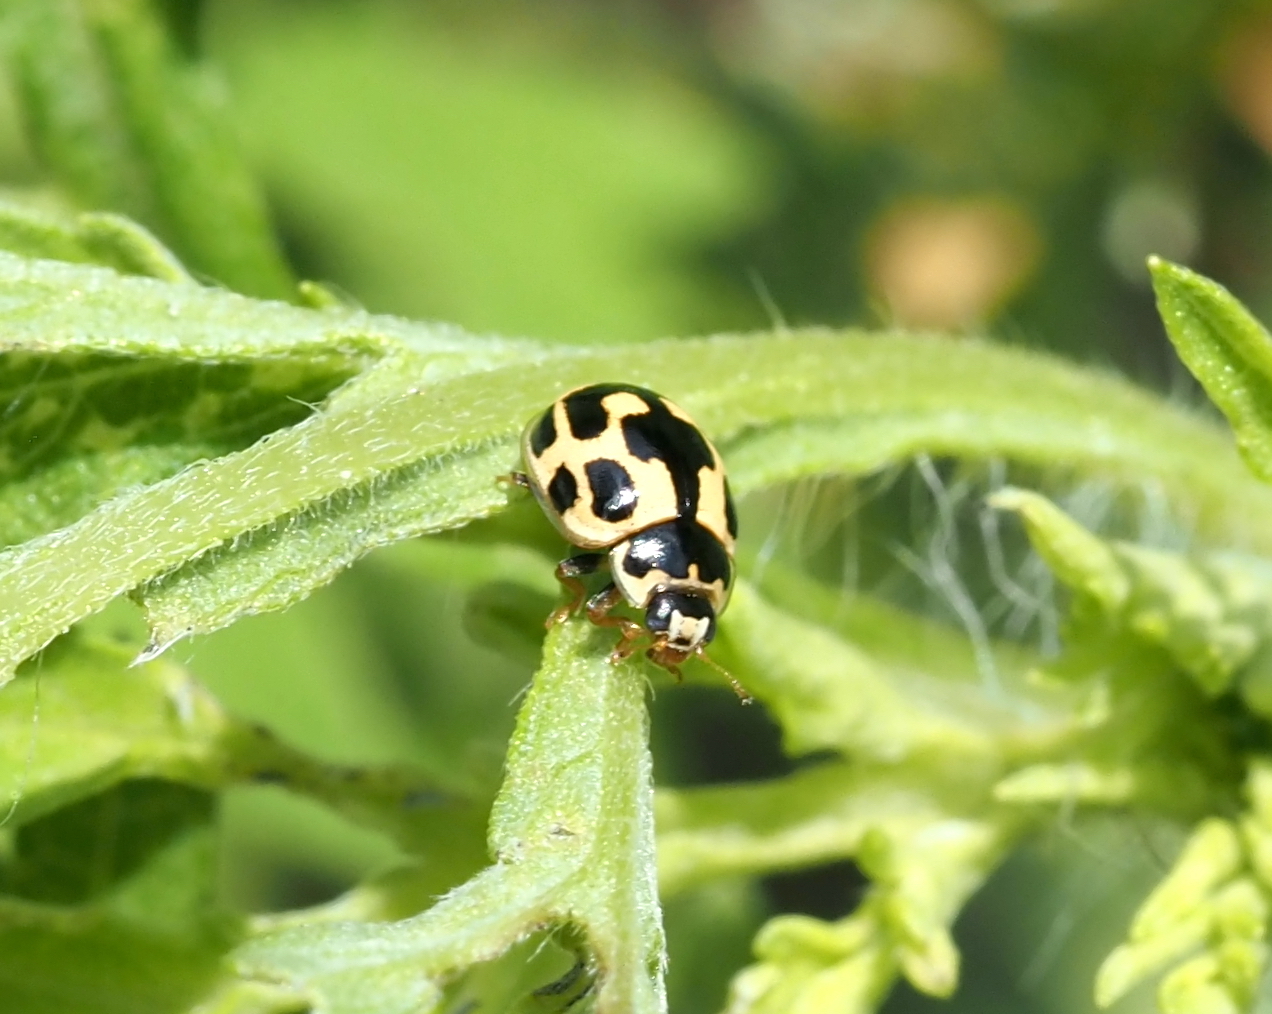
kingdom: Animalia
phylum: Arthropoda
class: Insecta
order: Coleoptera
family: Coccinellidae
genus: Propylaea
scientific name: Propylaea quatuordecimpunctata
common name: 14-spotted ladybird beetle
